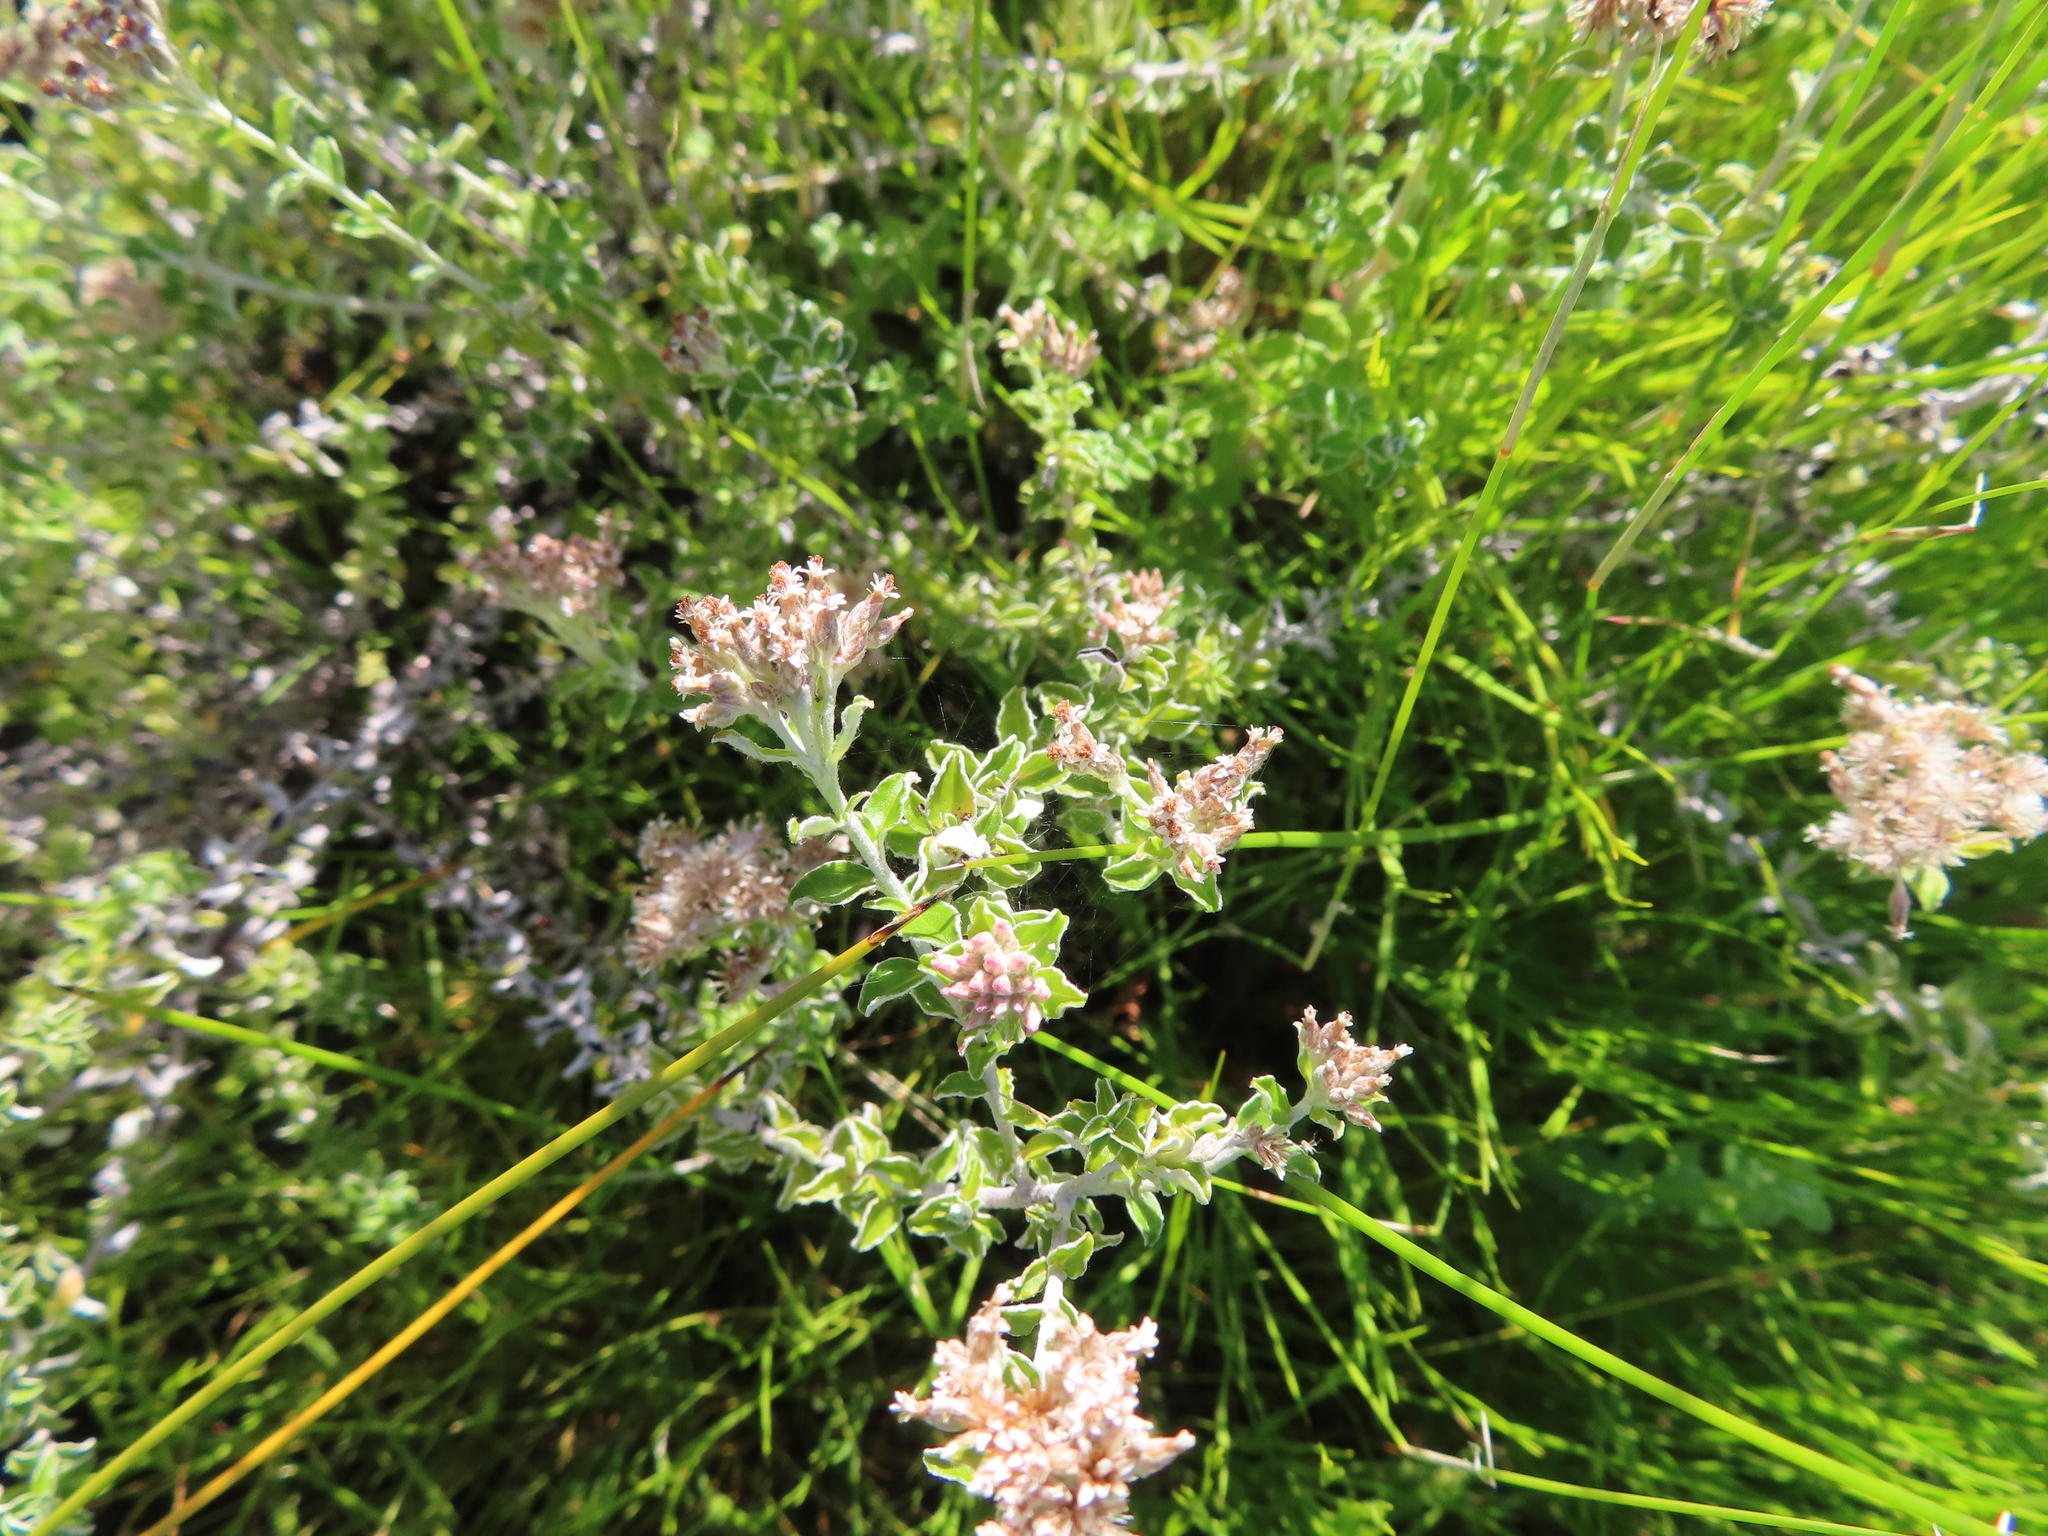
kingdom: Plantae
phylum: Tracheophyta
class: Magnoliopsida
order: Asterales
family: Asteraceae
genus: Plecostachys
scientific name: Plecostachys serpyllifolia
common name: Petite licorice
